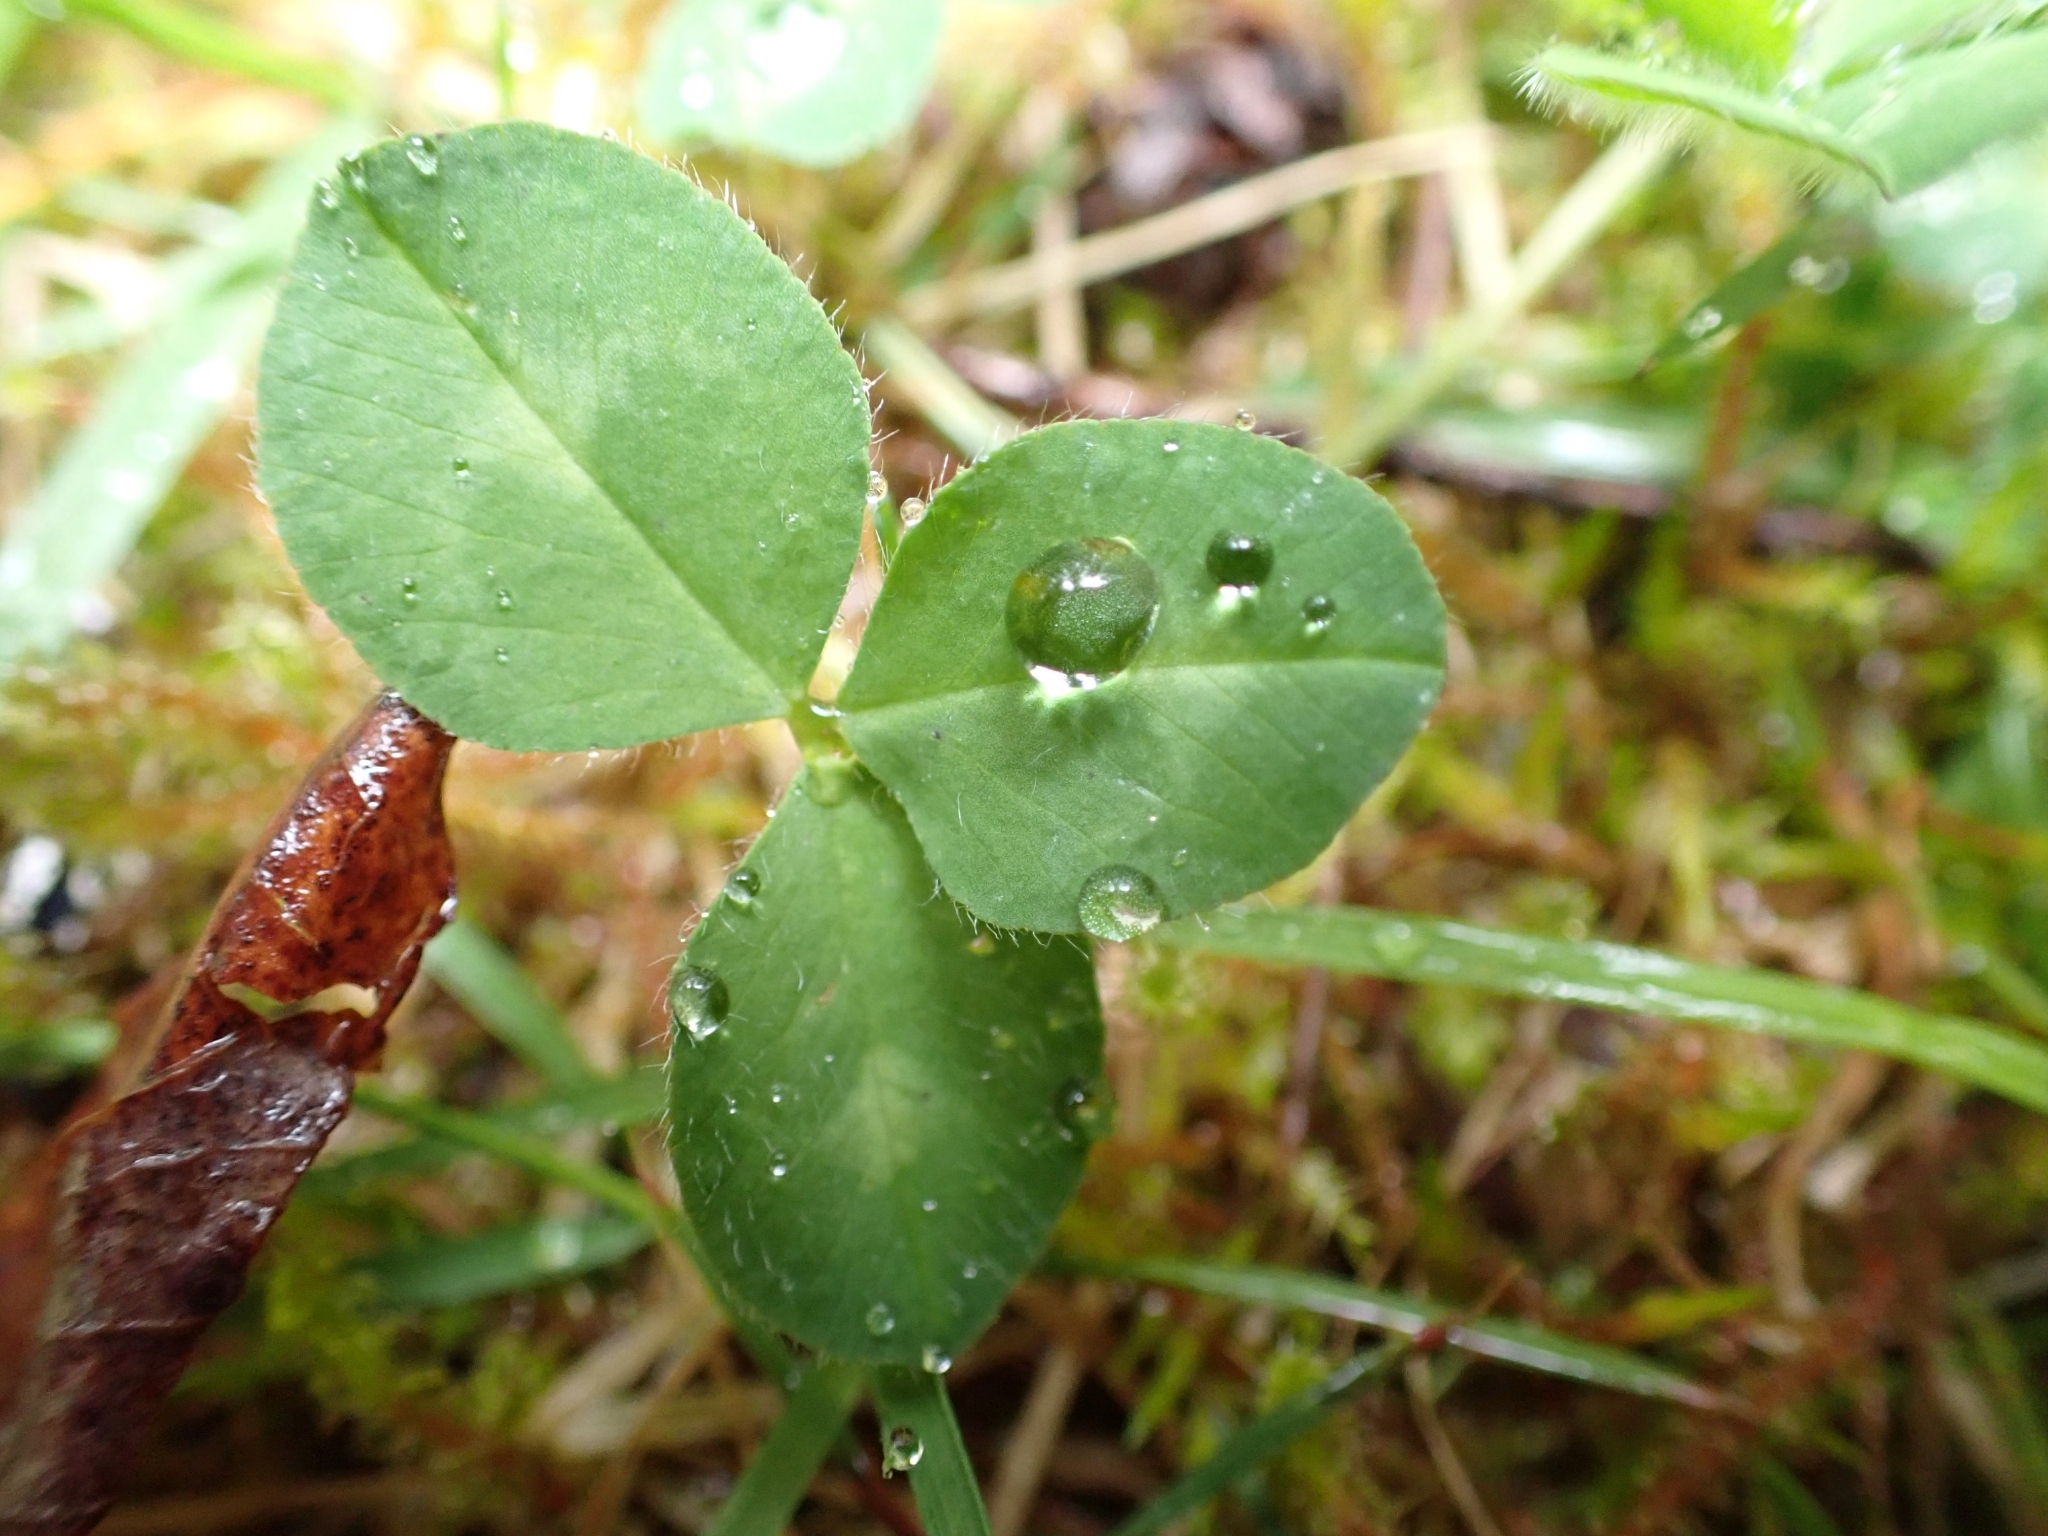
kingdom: Plantae
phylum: Tracheophyta
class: Magnoliopsida
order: Fabales
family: Fabaceae
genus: Trifolium
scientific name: Trifolium pratense
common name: Red clover
